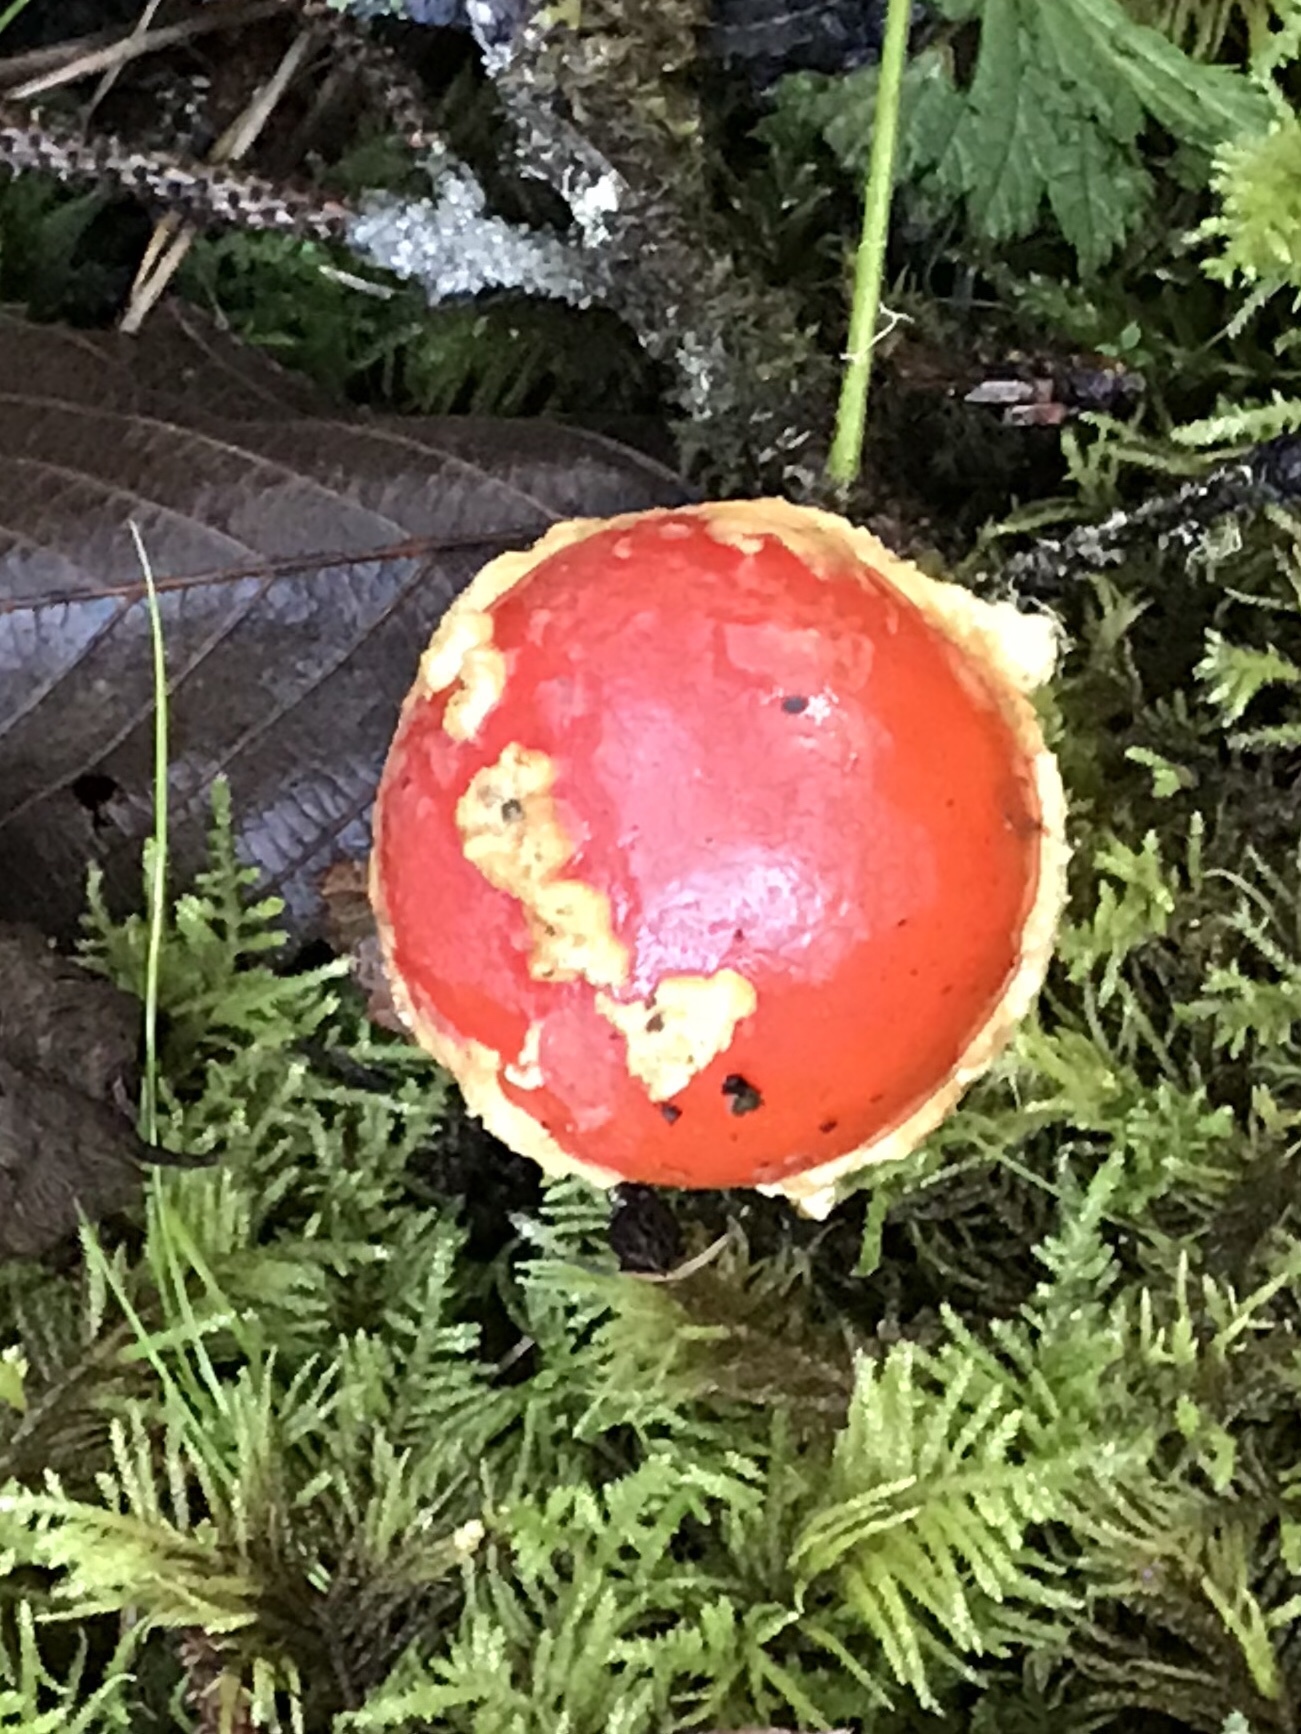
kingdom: Fungi
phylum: Basidiomycota
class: Agaricomycetes
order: Agaricales
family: Amanitaceae
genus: Amanita
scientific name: Amanita muscaria
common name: Fly agaric
